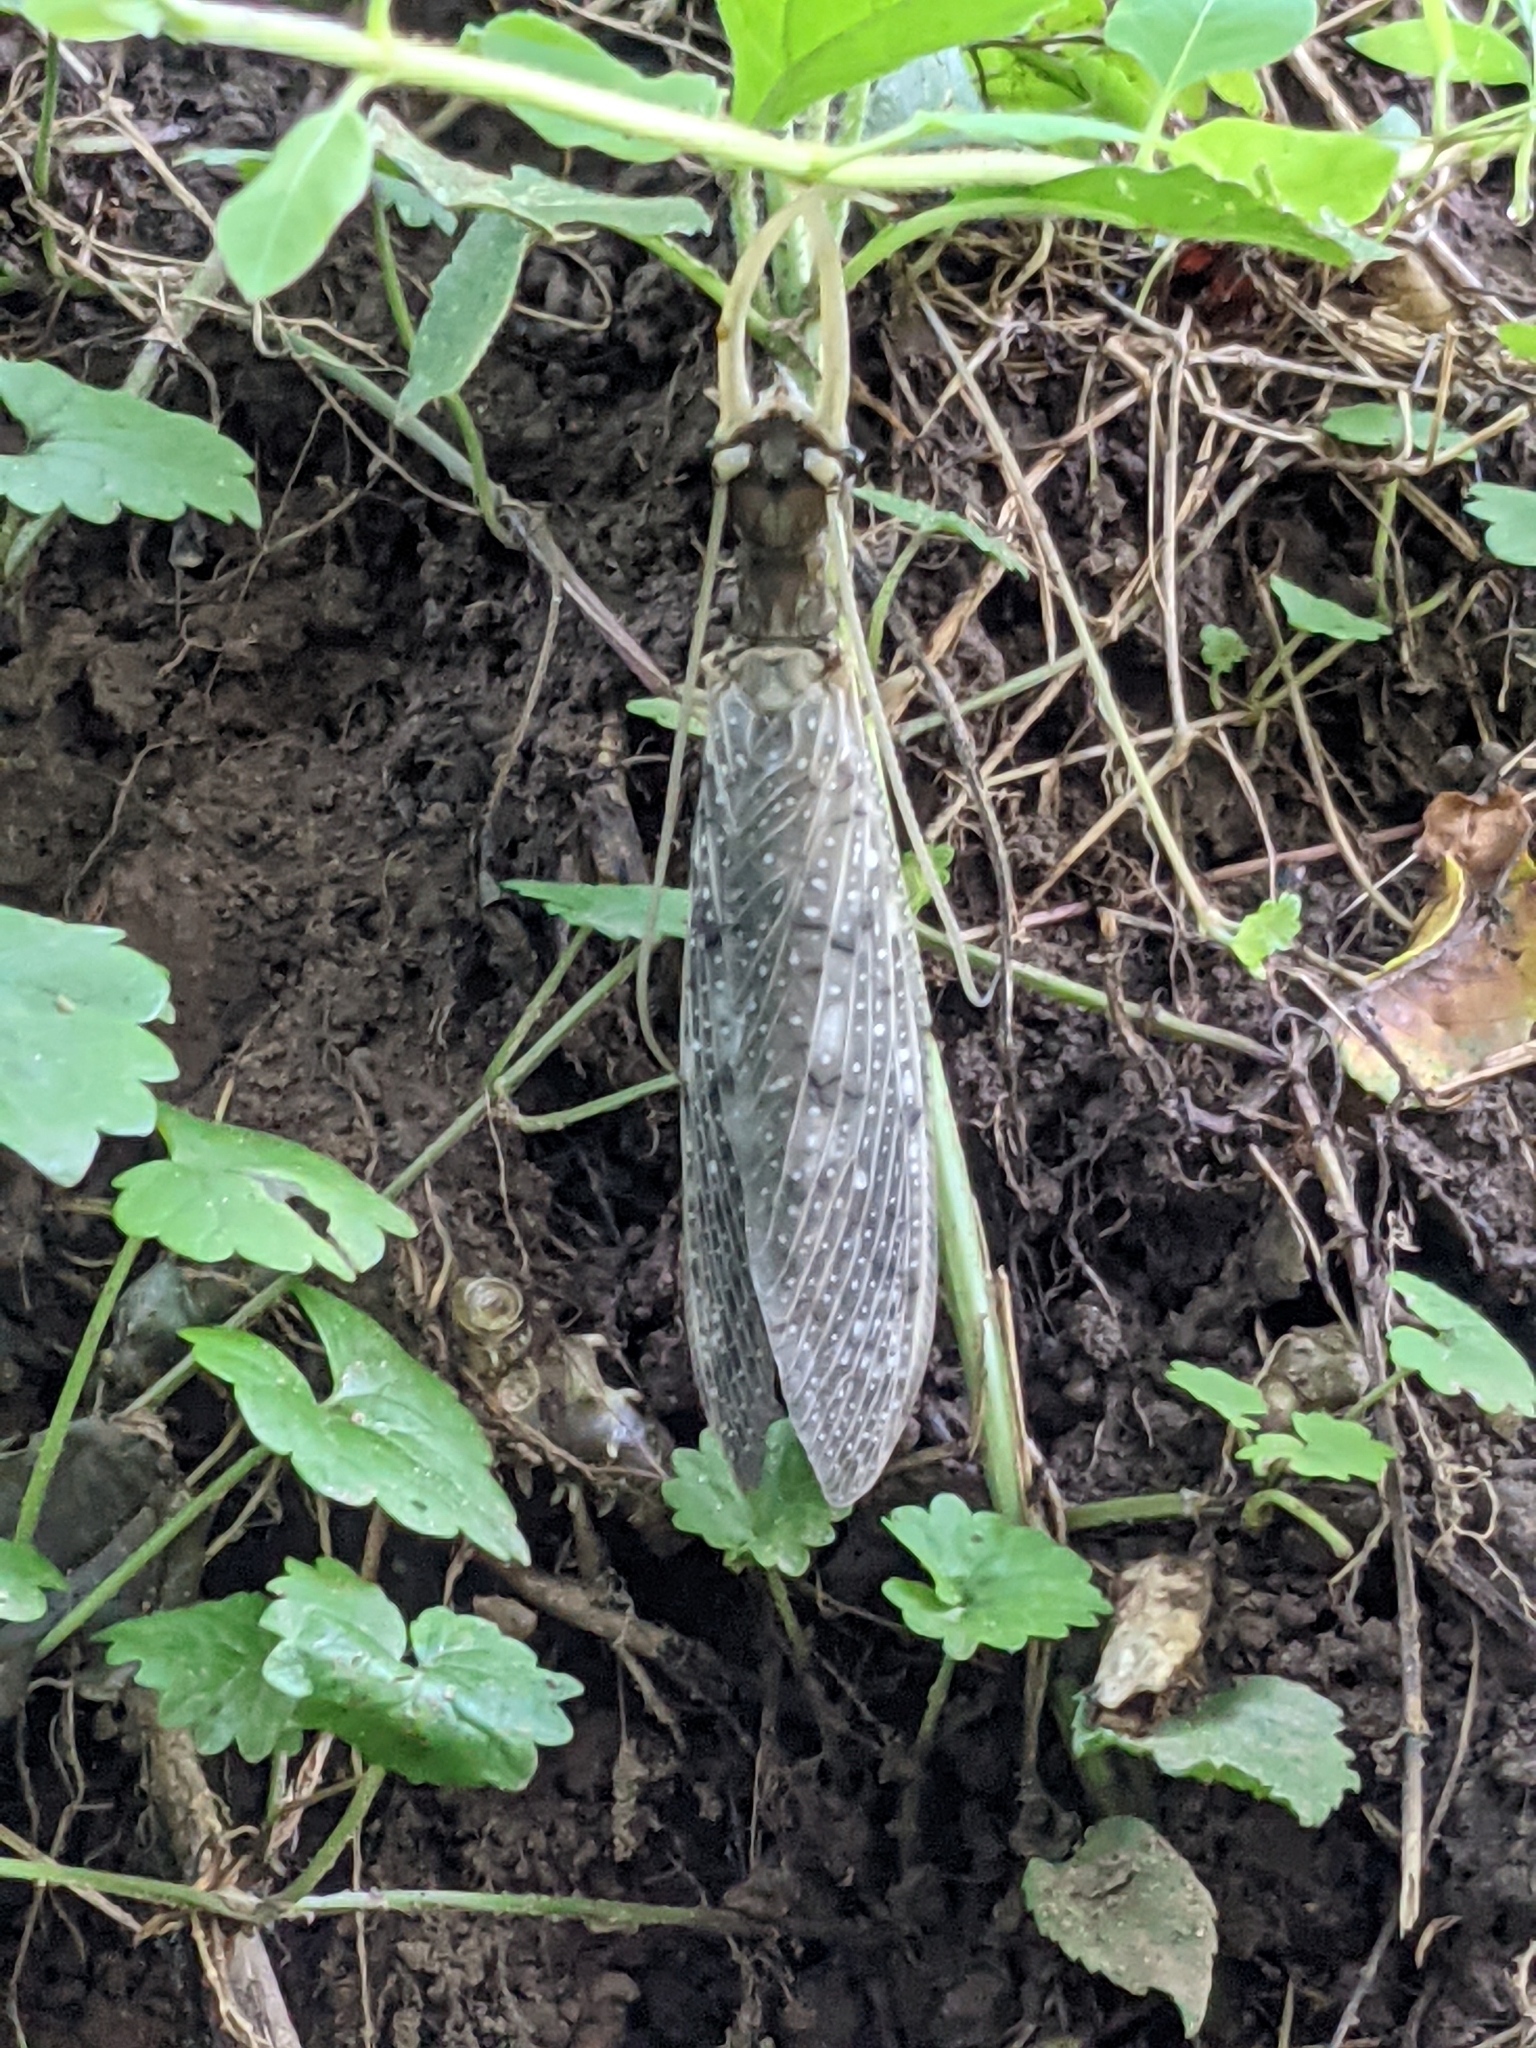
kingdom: Animalia
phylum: Arthropoda
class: Insecta
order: Megaloptera
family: Corydalidae
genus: Corydalus
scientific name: Corydalus cornutus
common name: Dobsonfly
